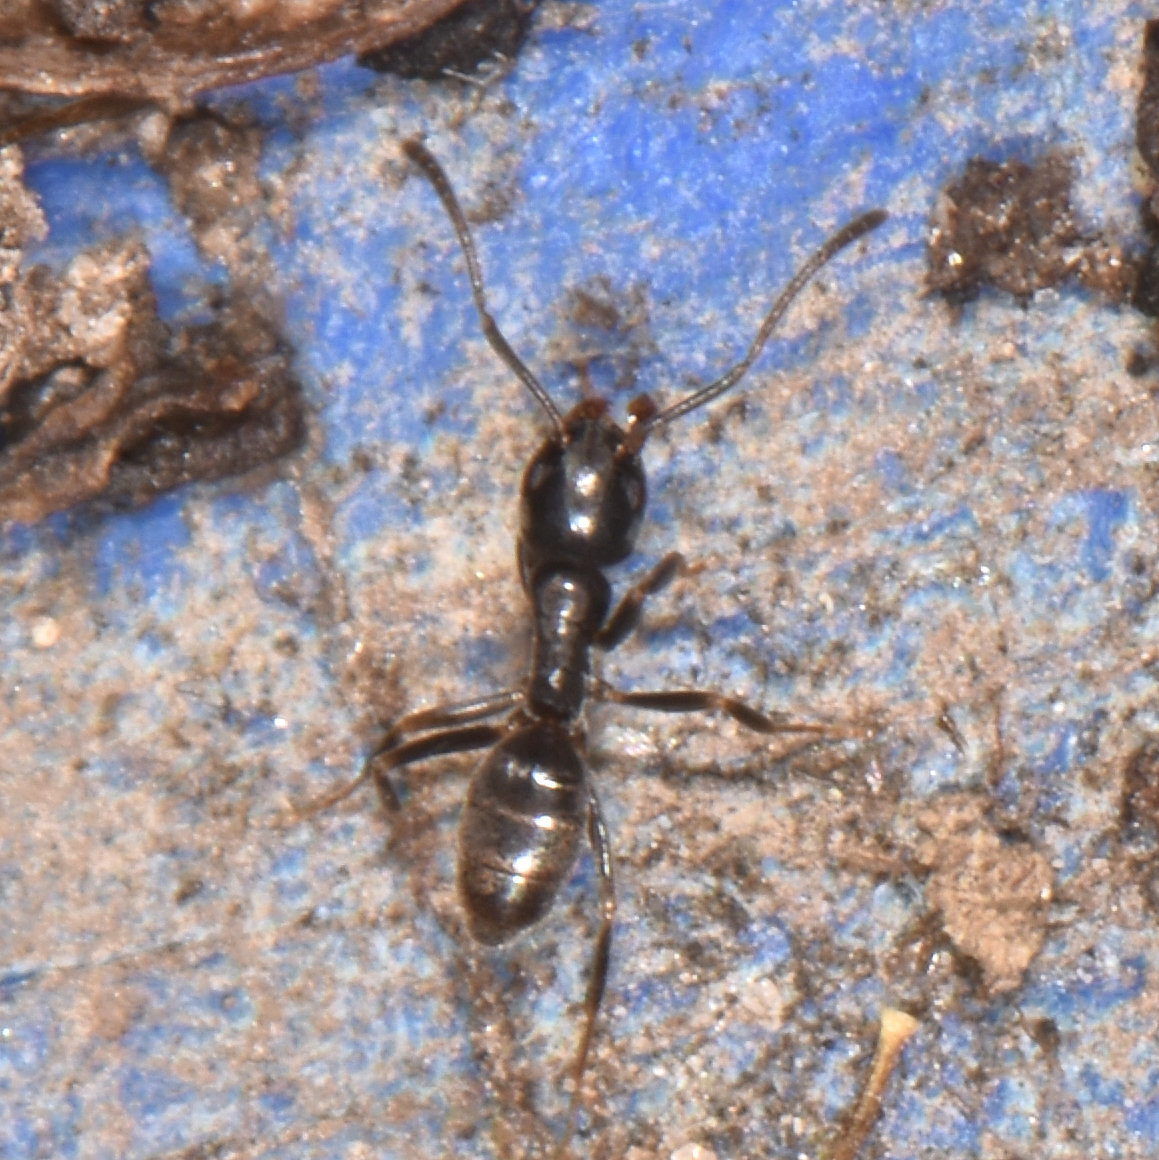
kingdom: Animalia
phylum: Arthropoda
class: Insecta
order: Hymenoptera
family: Formicidae
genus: Tapinoma
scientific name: Tapinoma sessile
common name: Odorous house ant
